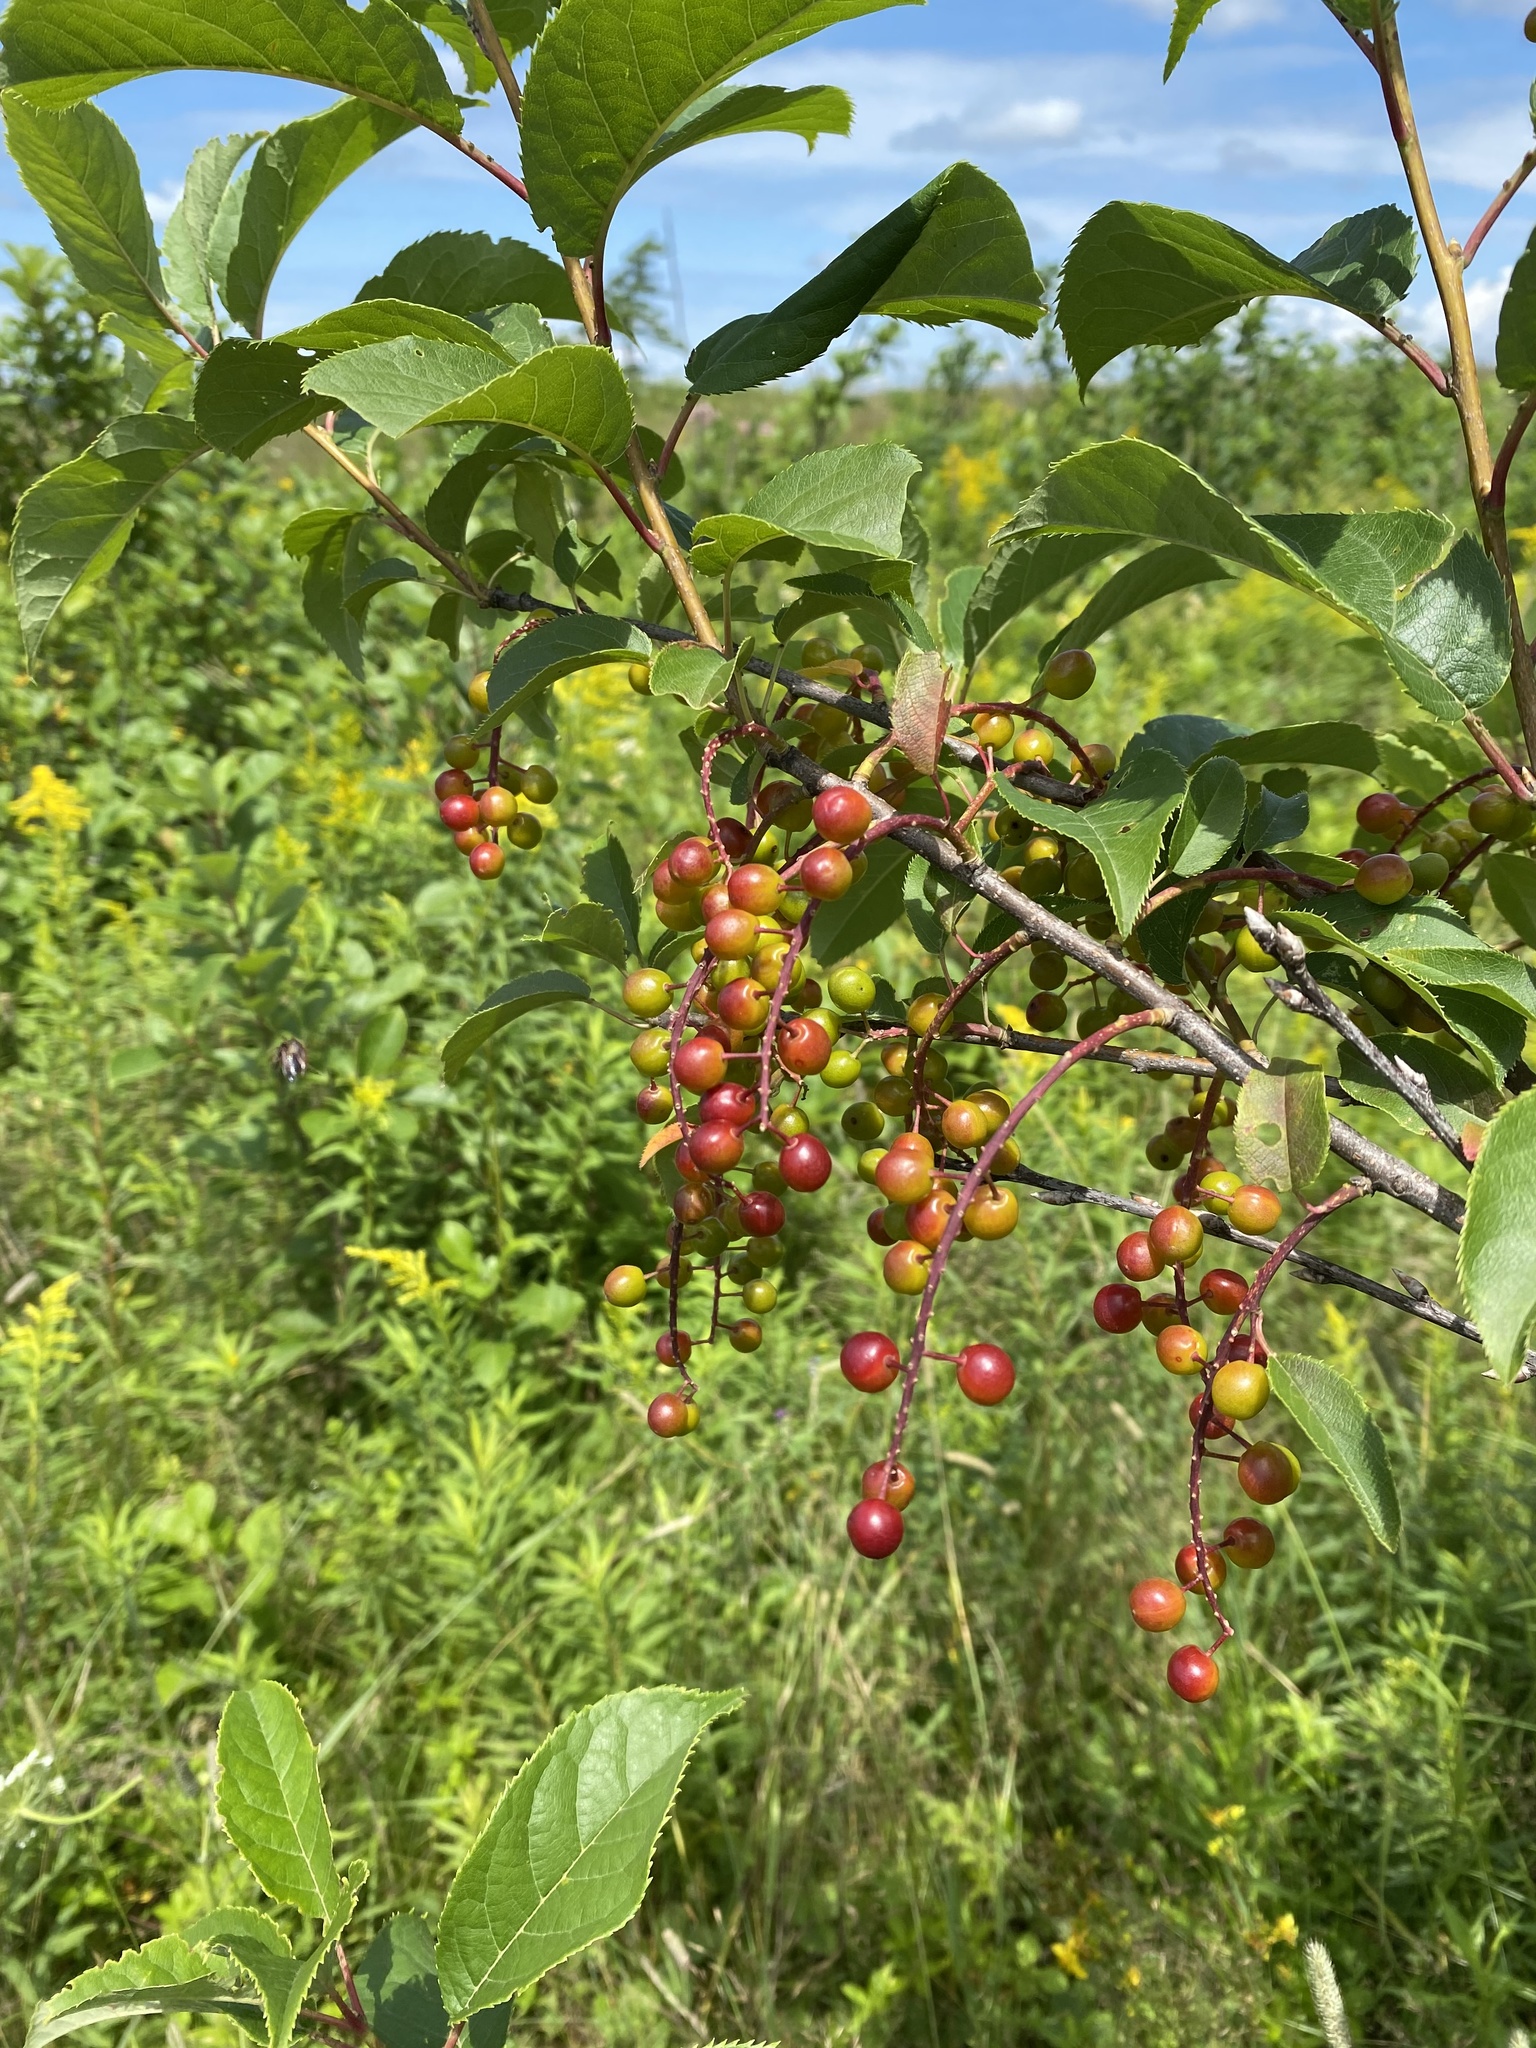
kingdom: Plantae
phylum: Tracheophyta
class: Magnoliopsida
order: Rosales
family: Rosaceae
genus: Prunus
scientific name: Prunus virginiana
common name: Chokecherry
